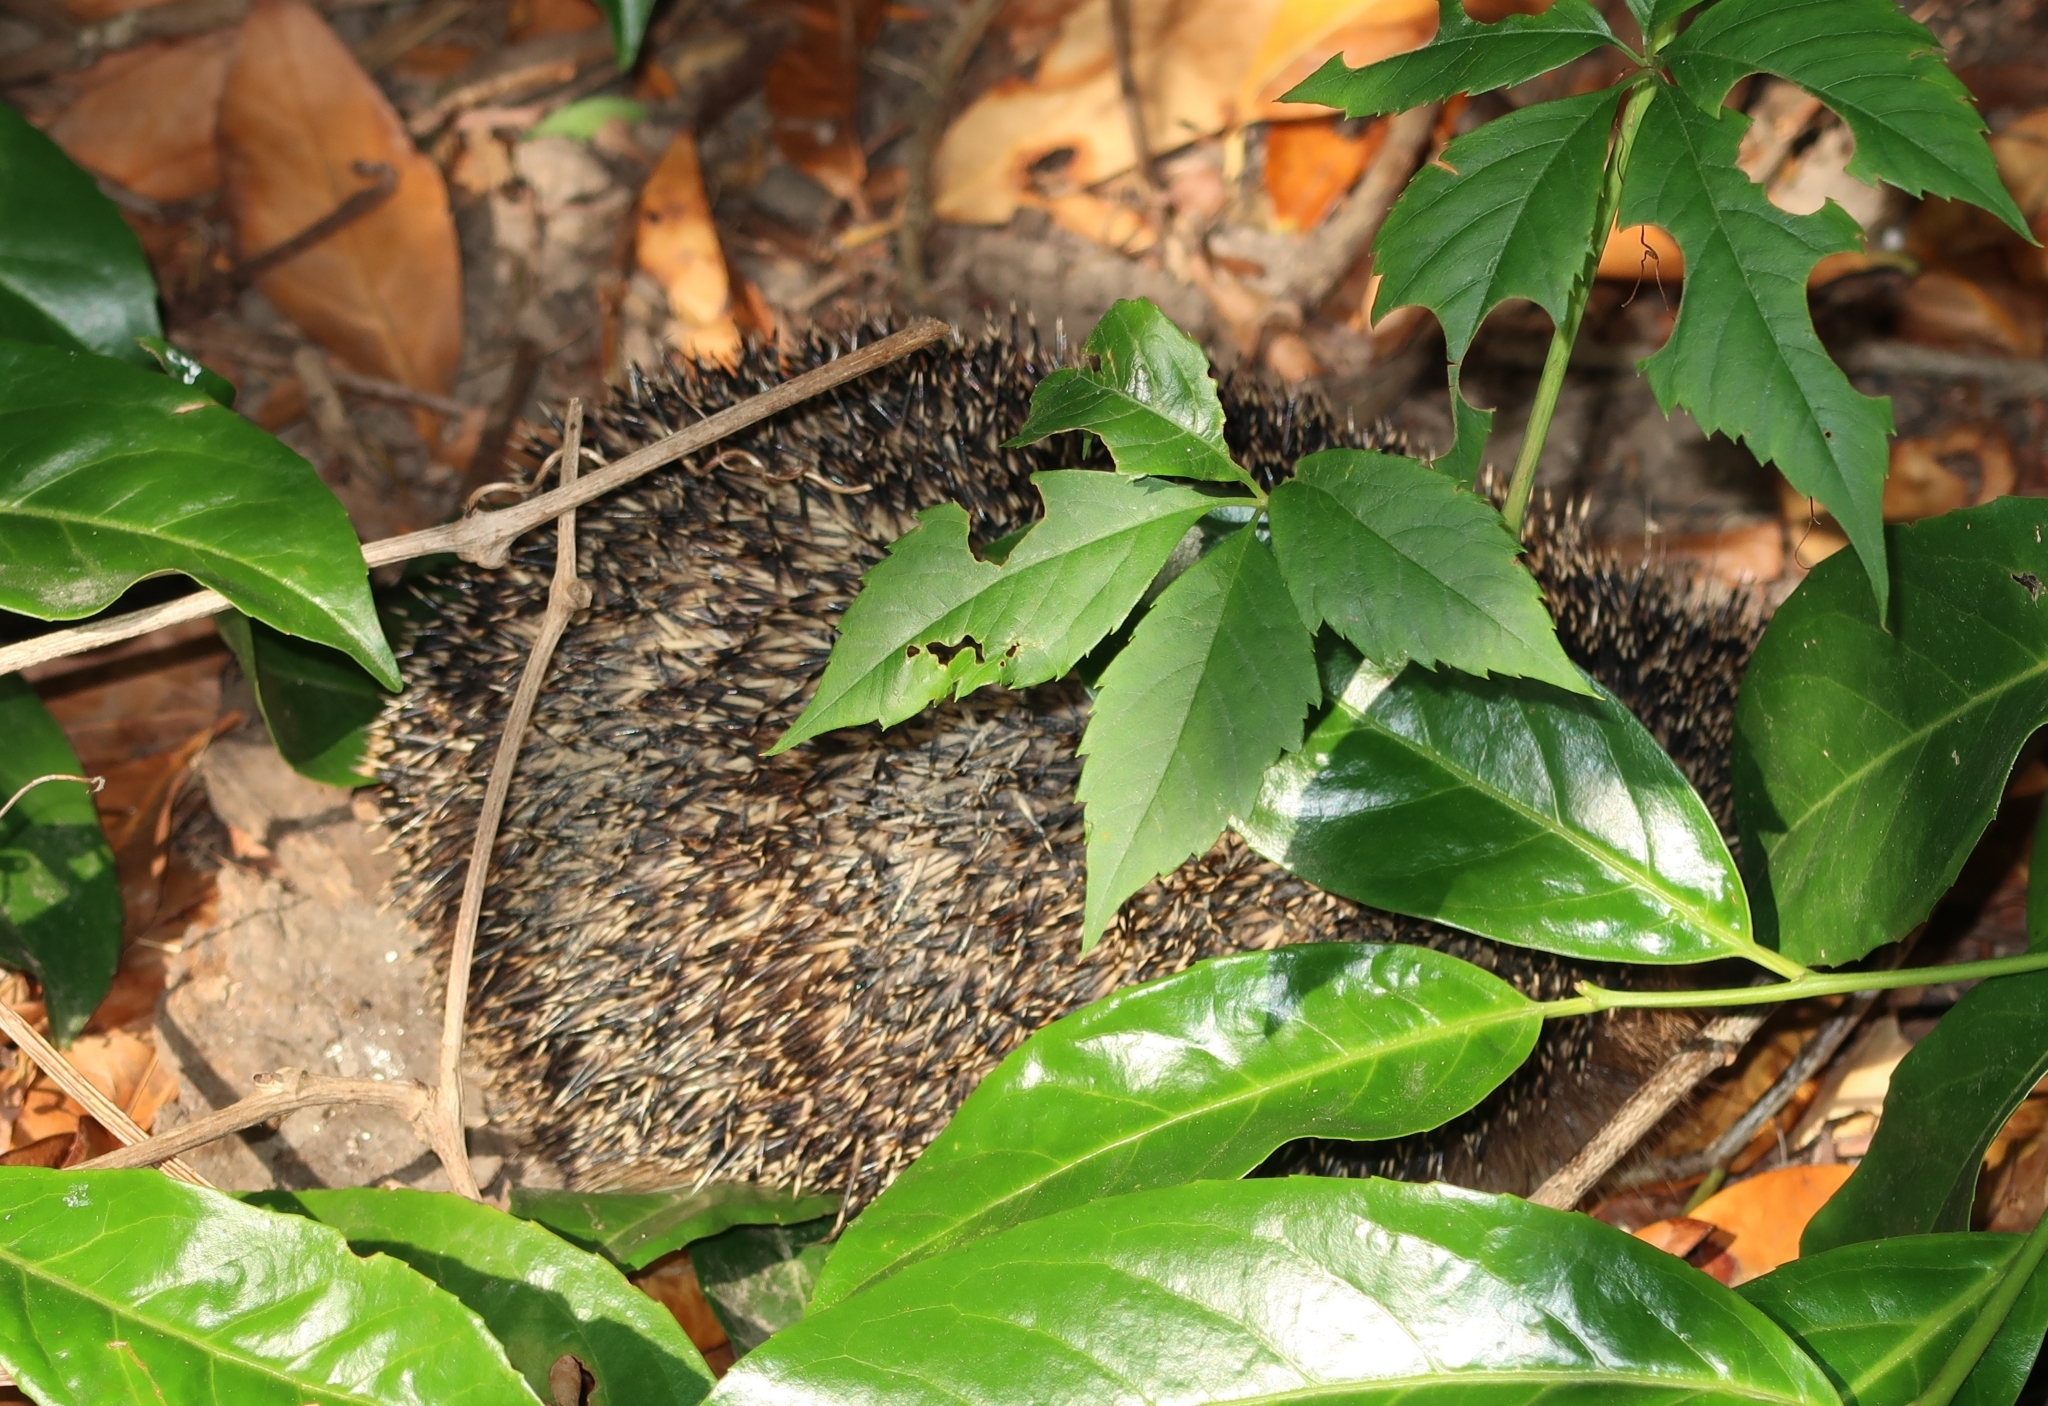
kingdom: Animalia
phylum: Chordata
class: Mammalia
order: Erinaceomorpha
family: Erinaceidae
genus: Erinaceus
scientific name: Erinaceus europaeus
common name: West european hedgehog
